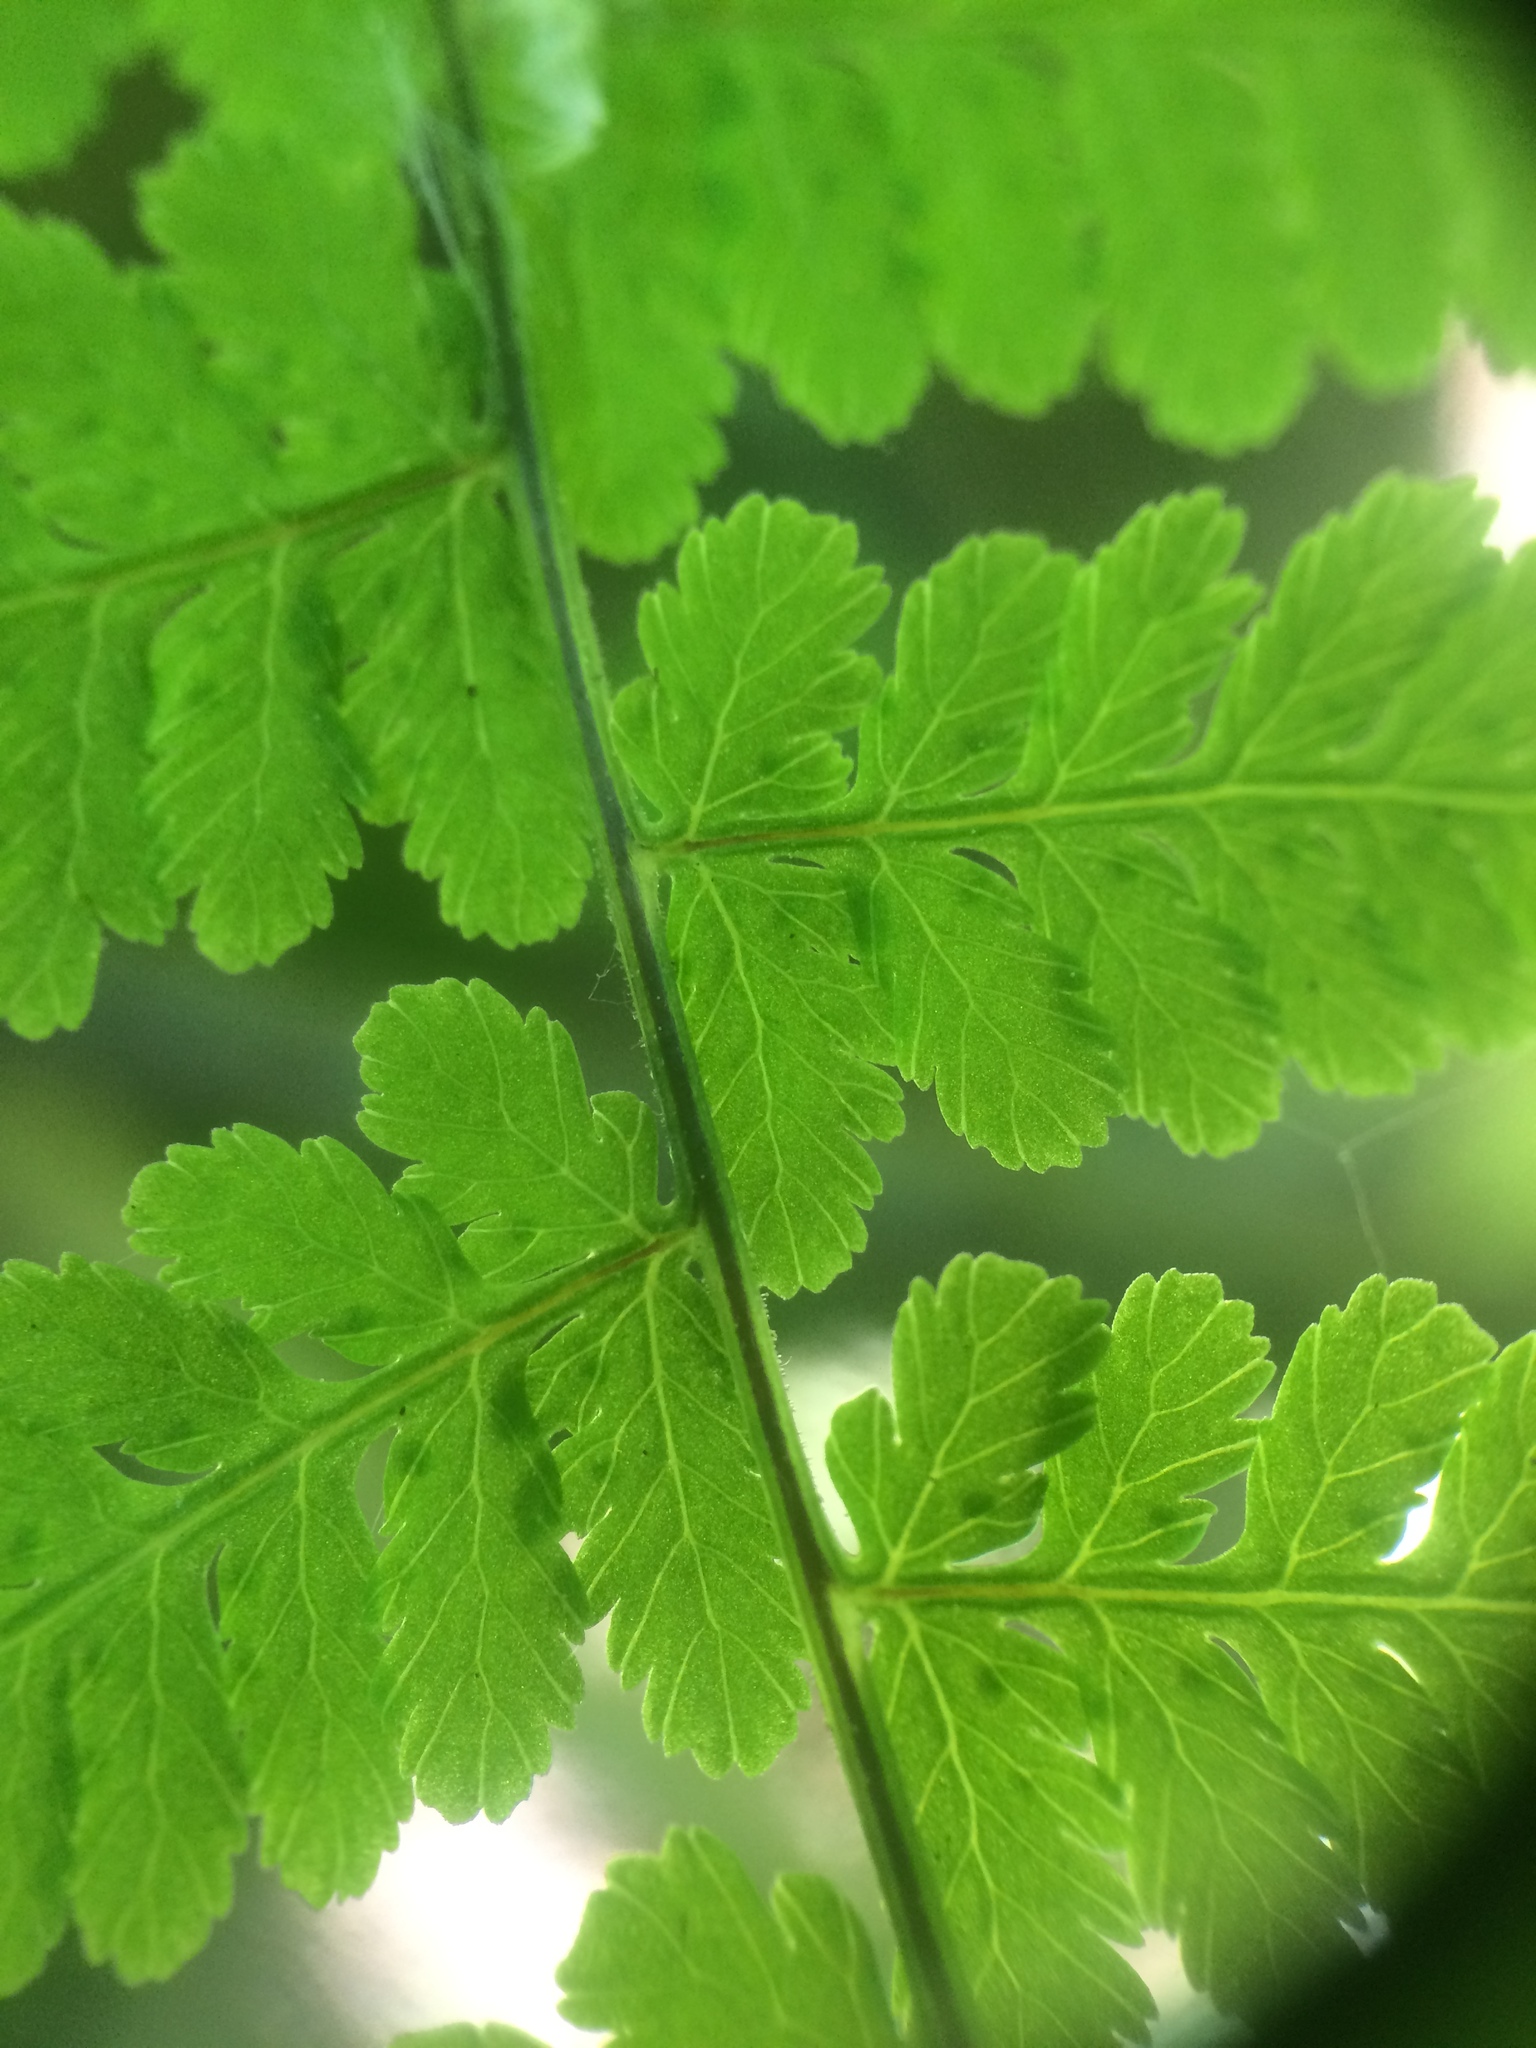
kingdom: Plantae
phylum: Tracheophyta
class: Polypodiopsida
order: Polypodiales
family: Cystopteridaceae
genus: Cystopteris
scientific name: Cystopteris bulbifera
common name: Bulblet bladder fern
